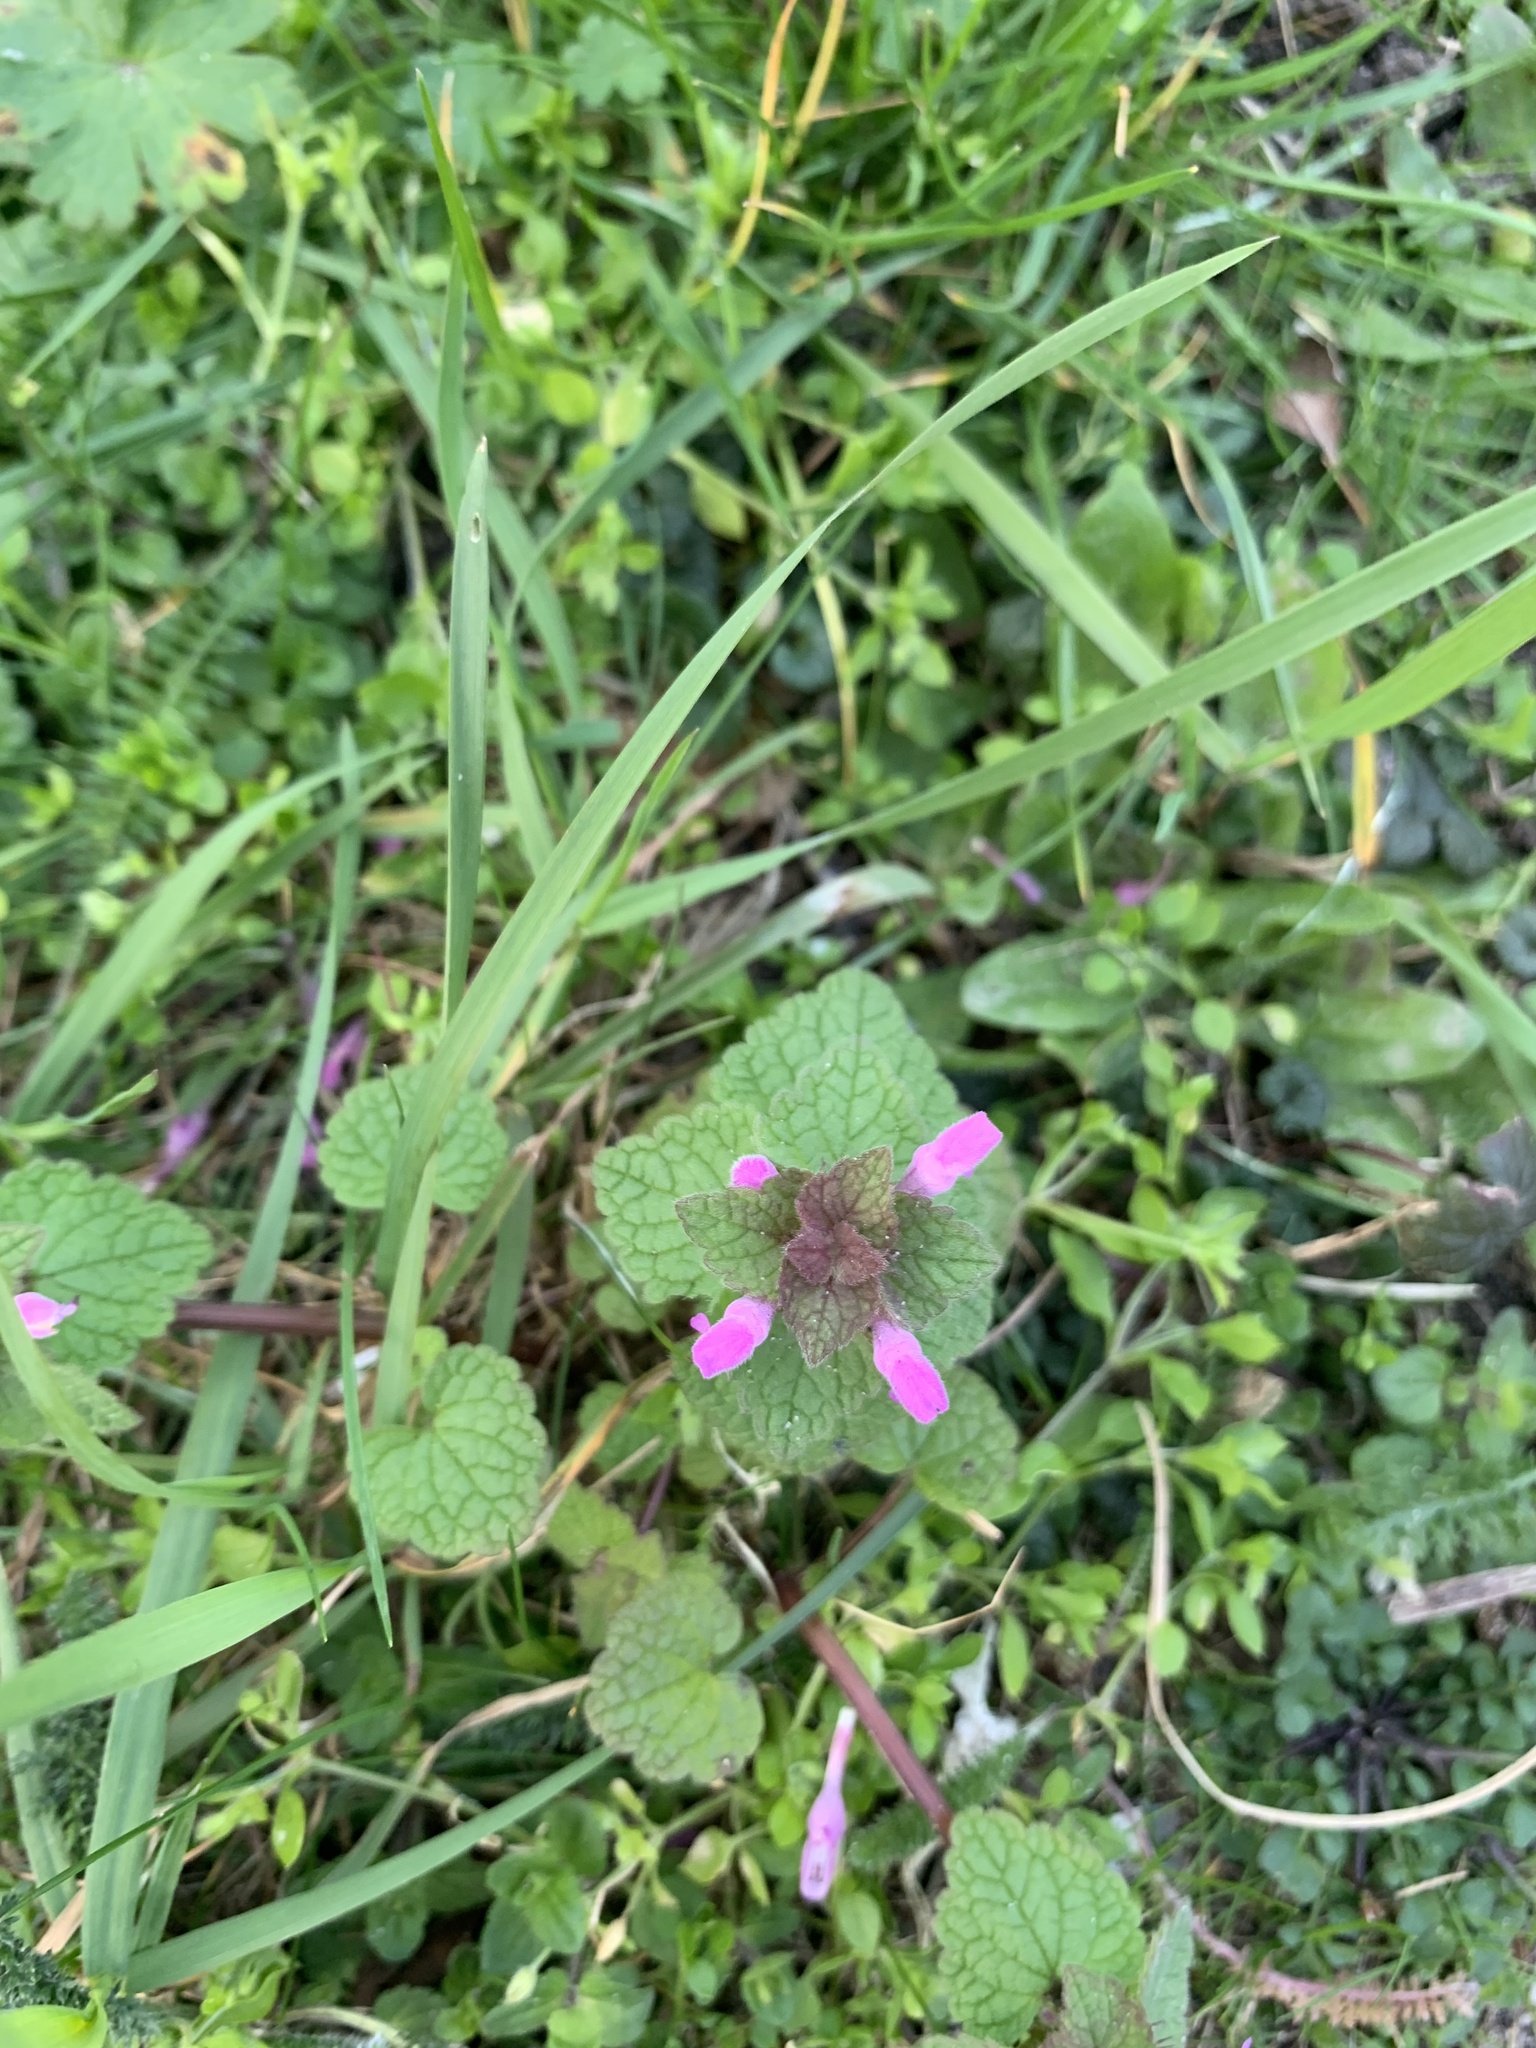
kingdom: Plantae
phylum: Tracheophyta
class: Magnoliopsida
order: Lamiales
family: Lamiaceae
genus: Lamium
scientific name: Lamium purpureum
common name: Red dead-nettle
